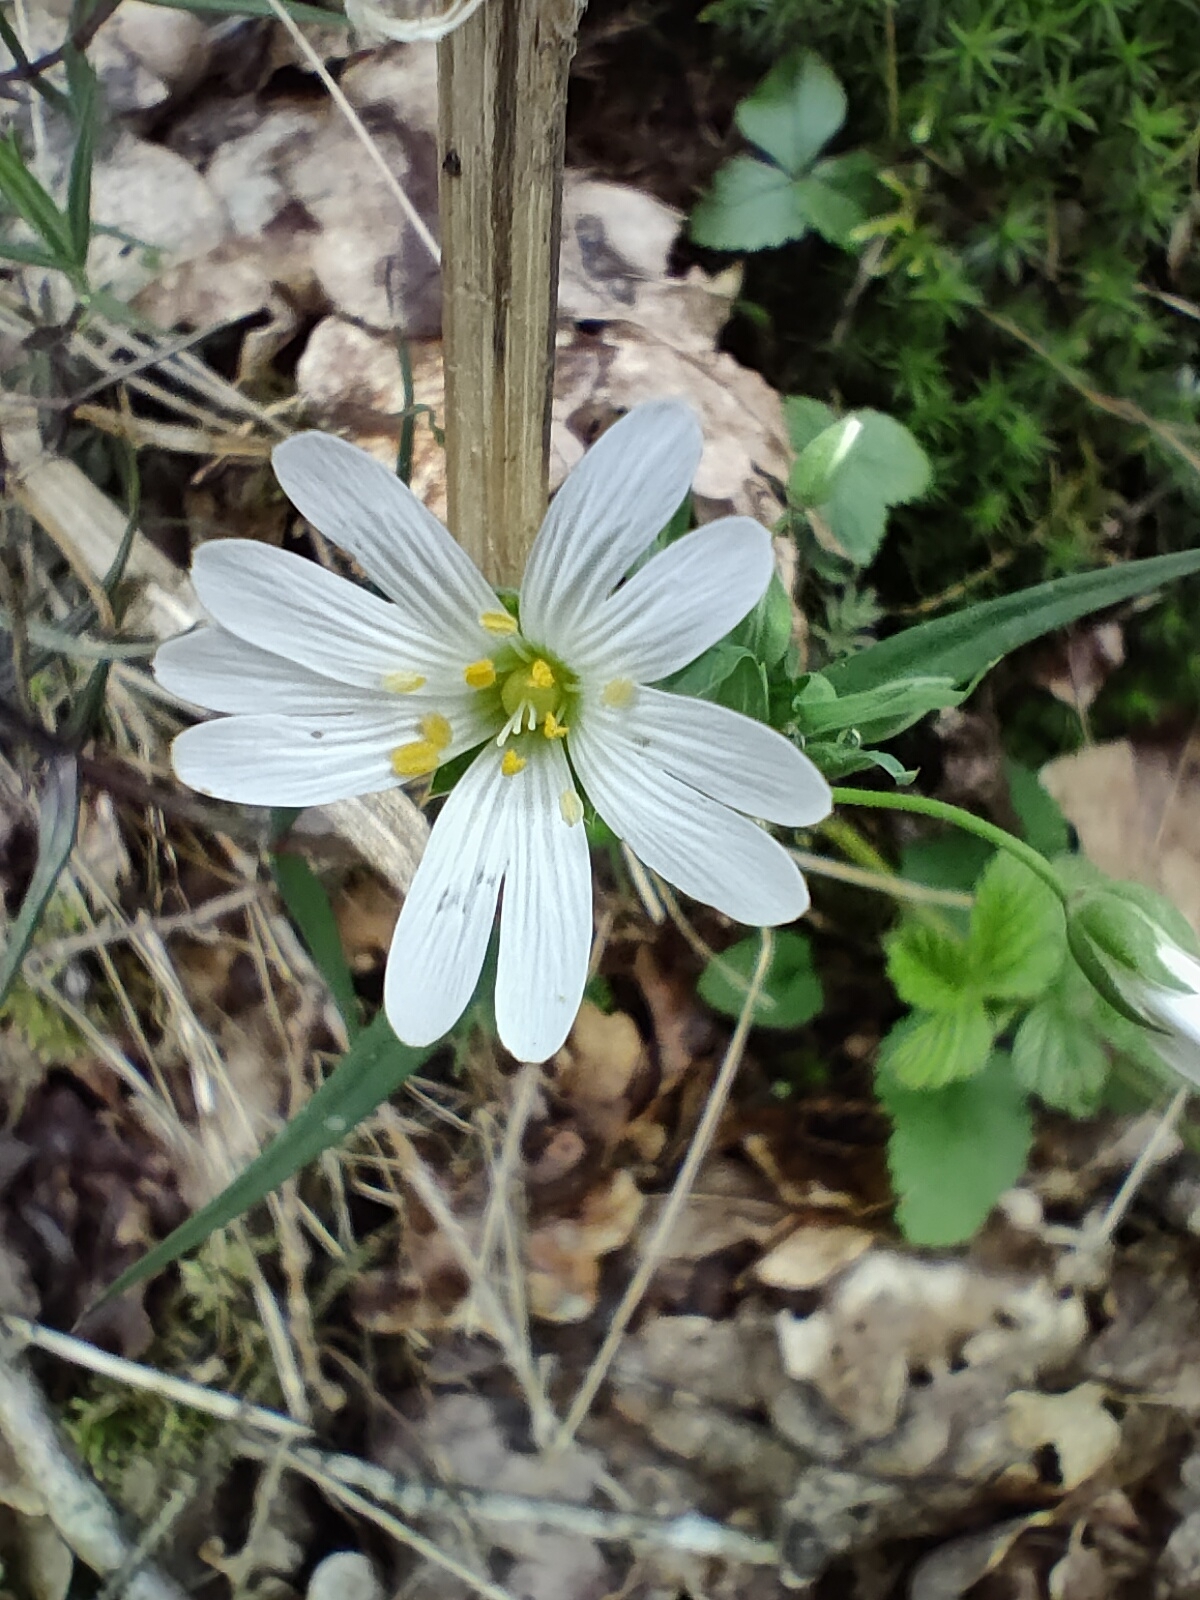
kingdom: Plantae
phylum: Tracheophyta
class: Magnoliopsida
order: Caryophyllales
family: Caryophyllaceae
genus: Rabelera
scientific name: Rabelera holostea
